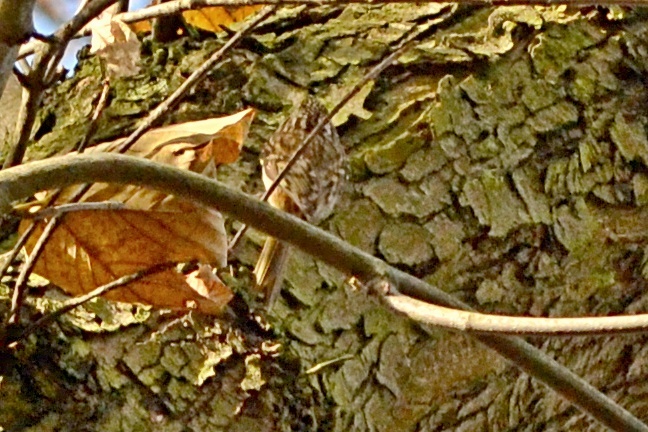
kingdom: Animalia
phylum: Chordata
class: Aves
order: Passeriformes
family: Certhiidae
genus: Certhia
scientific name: Certhia familiaris
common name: Eurasian treecreeper
